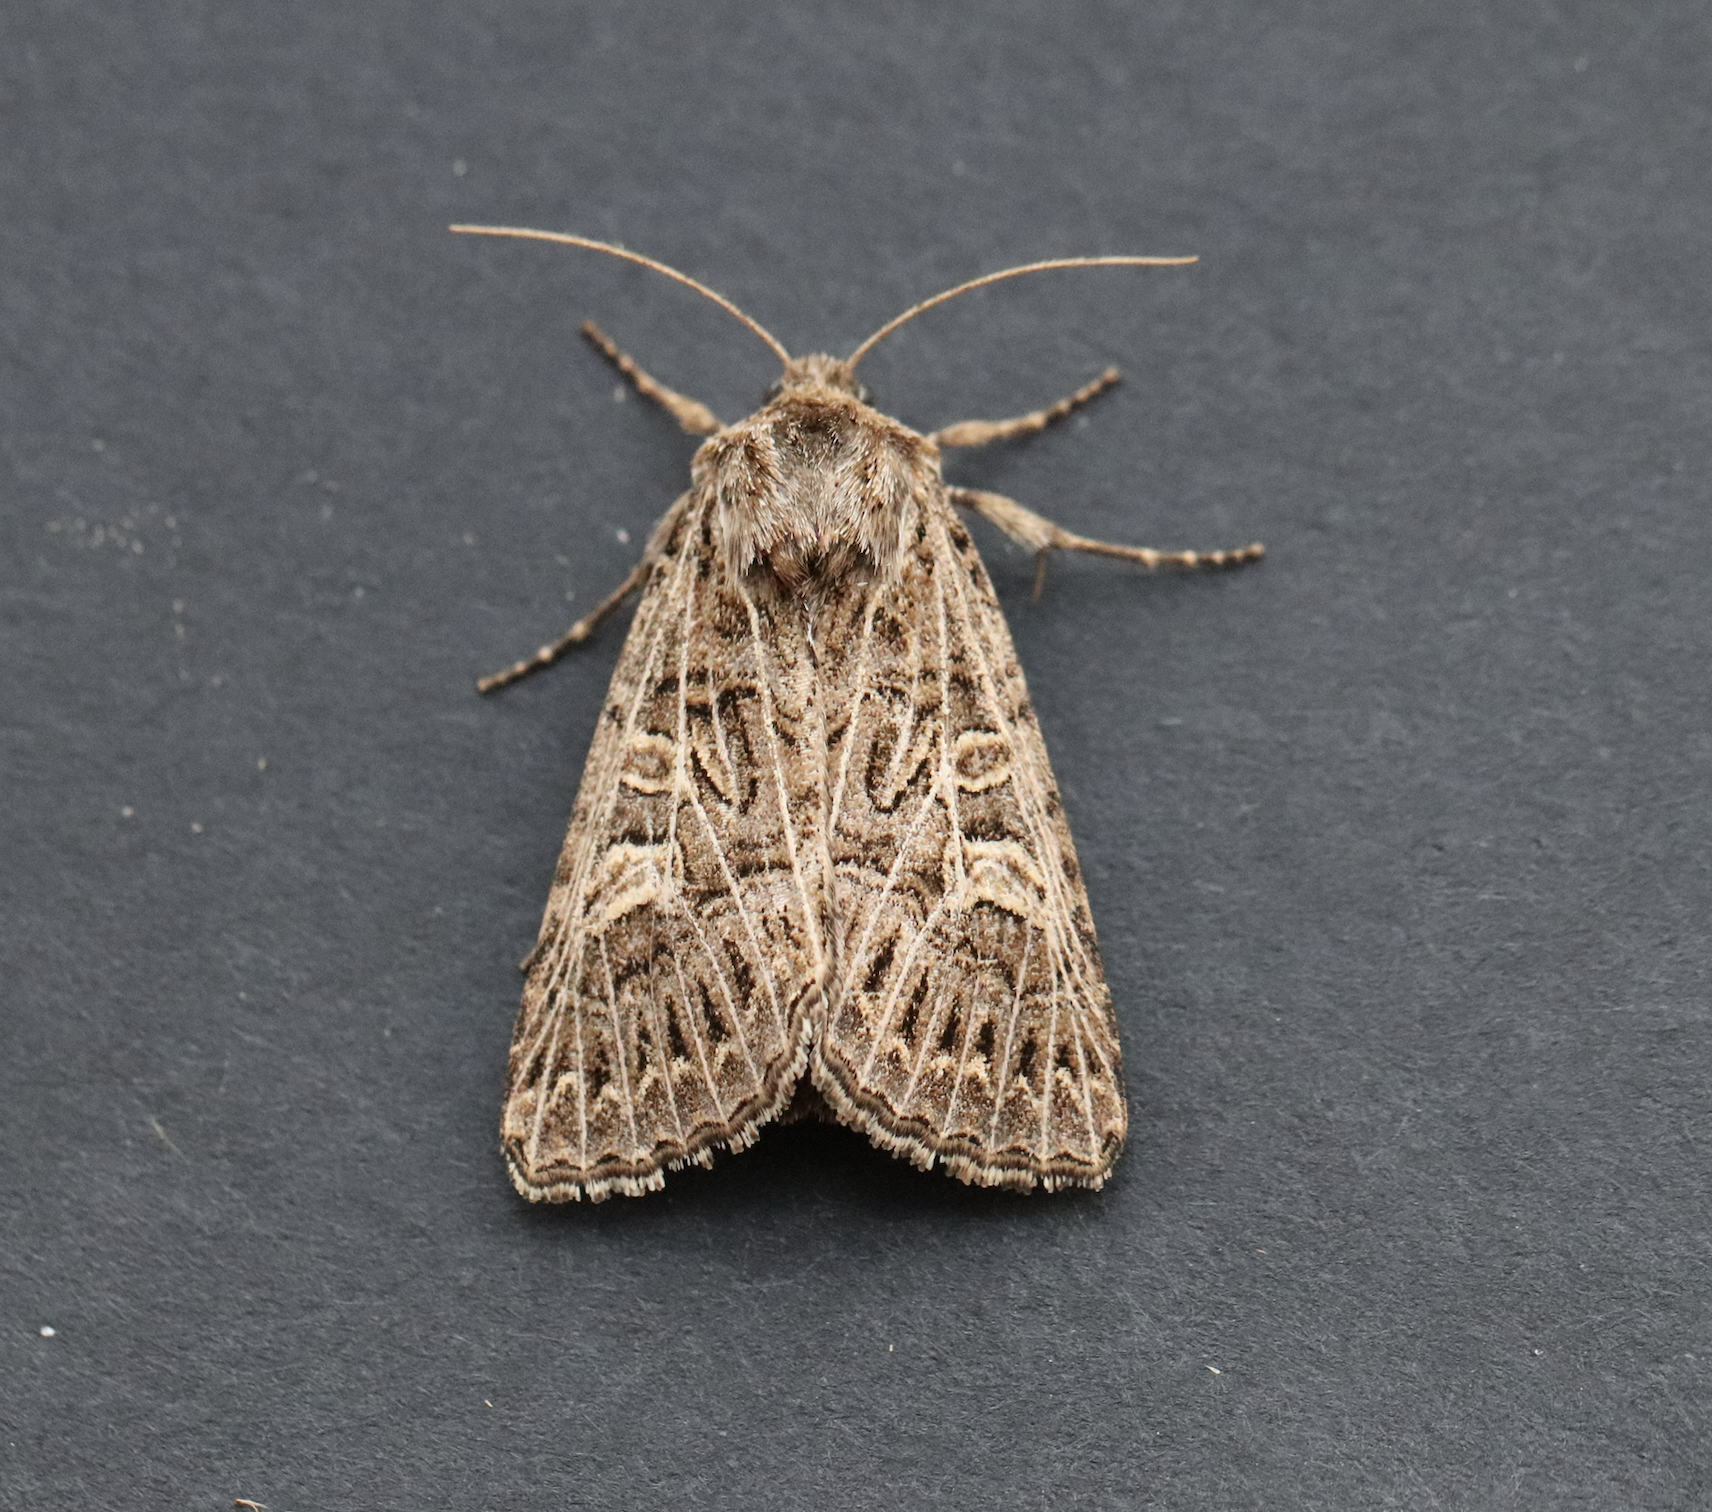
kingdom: Animalia
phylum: Arthropoda
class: Insecta
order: Lepidoptera
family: Noctuidae
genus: Tholera
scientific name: Tholera decimalis
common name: Feathered gothic
